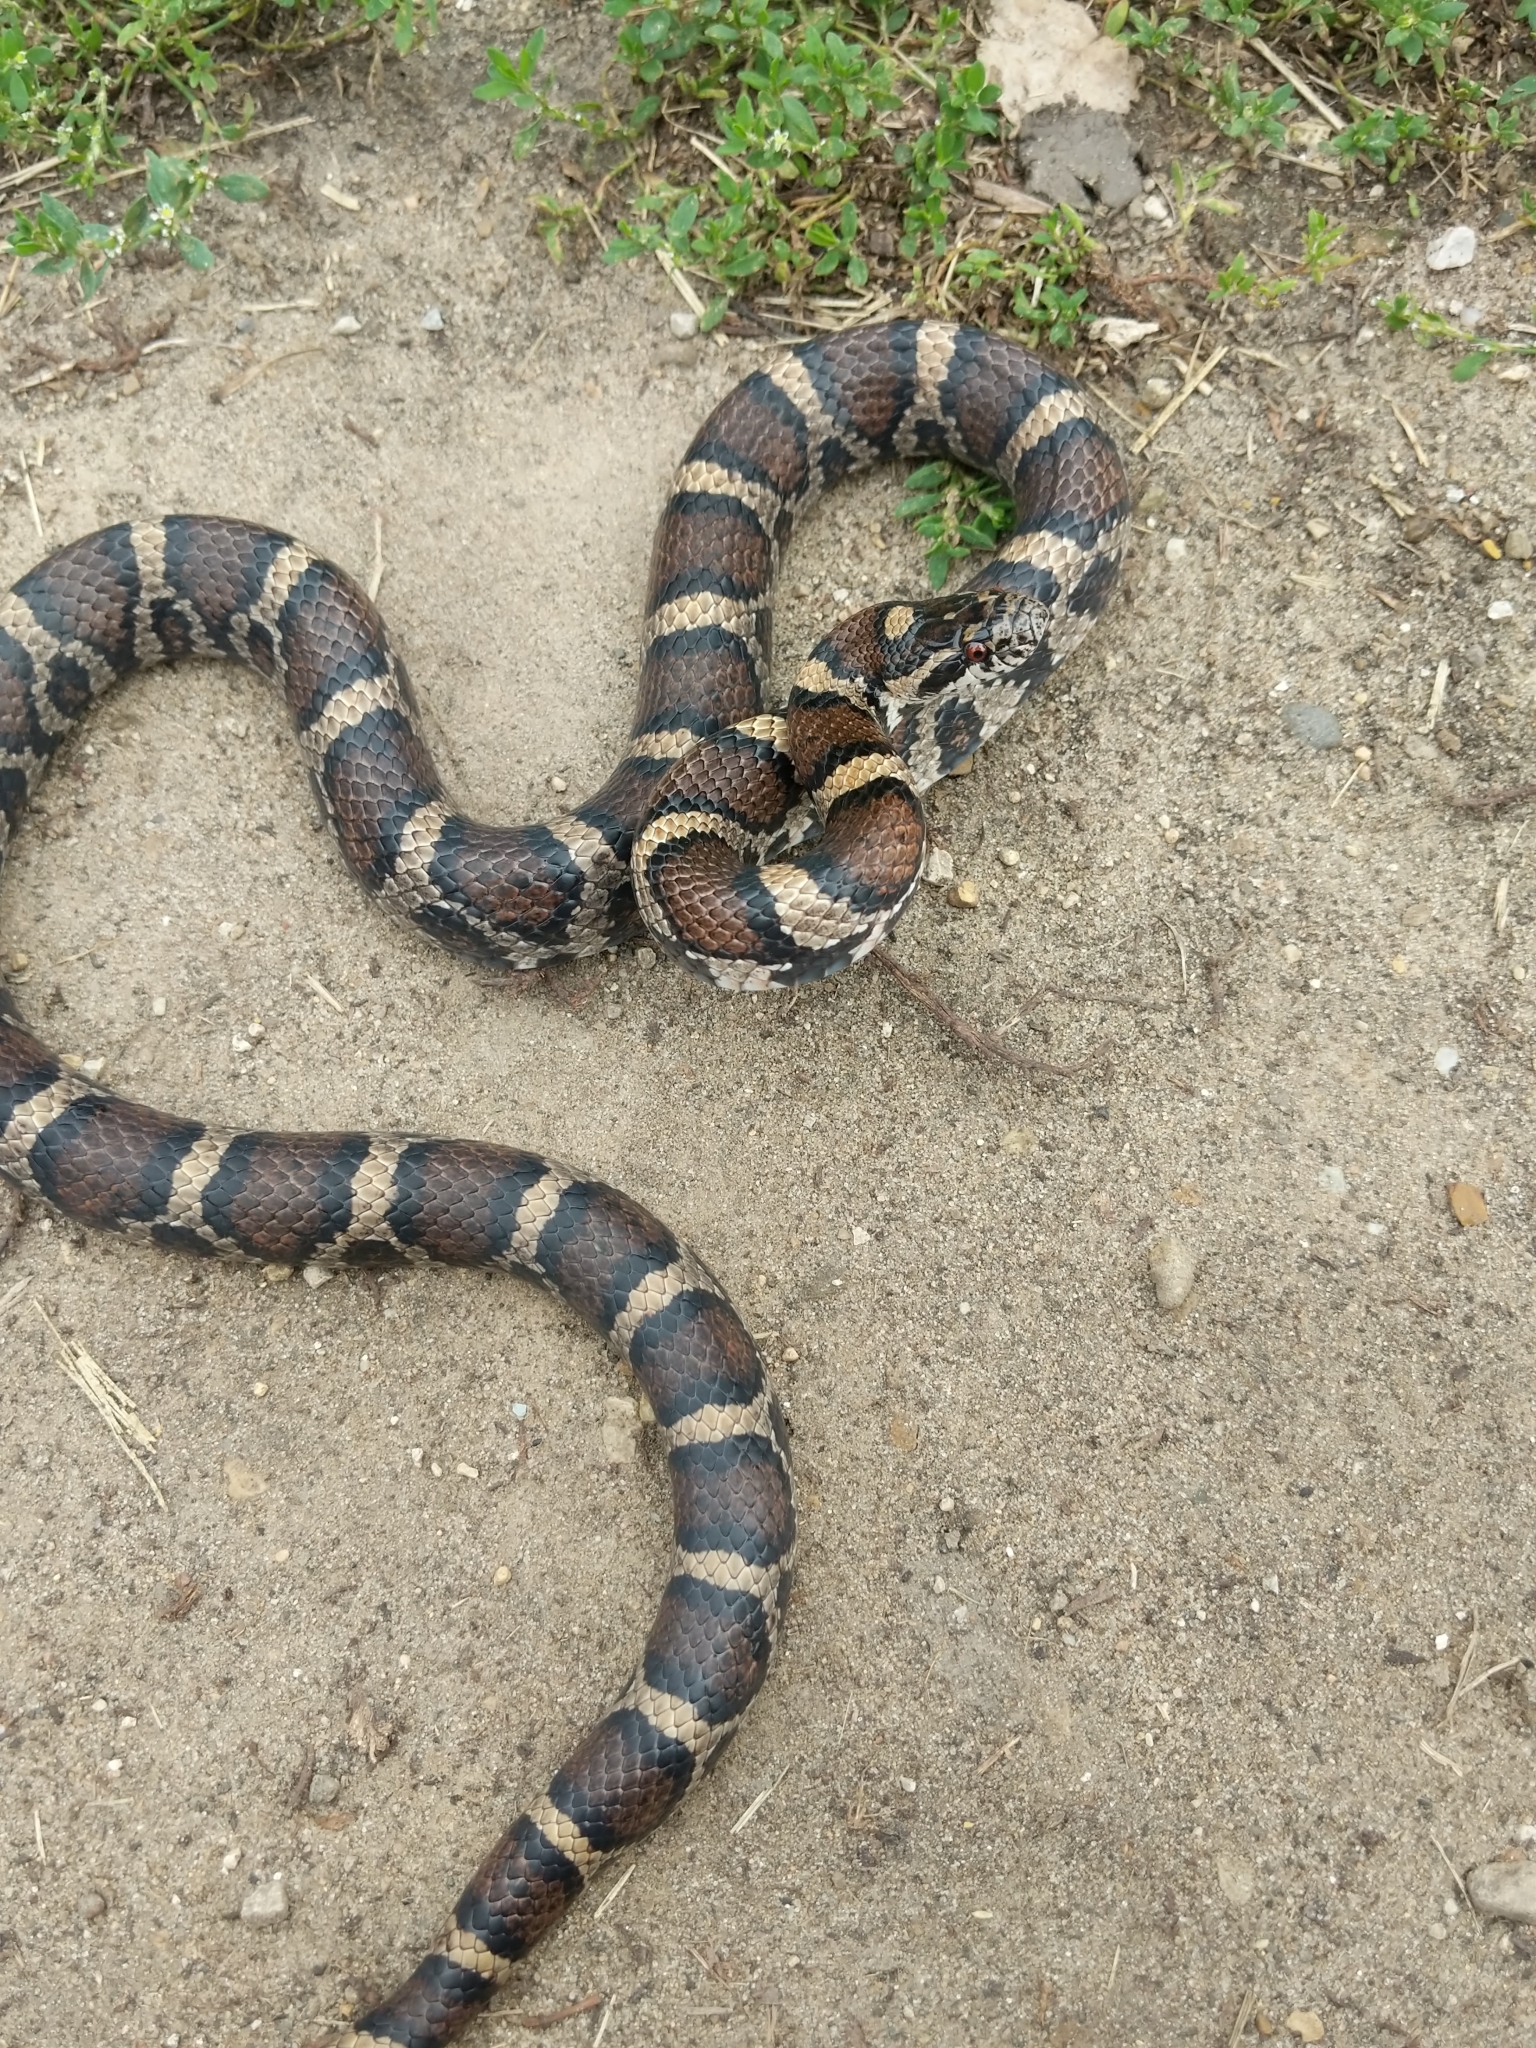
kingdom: Animalia
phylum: Chordata
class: Squamata
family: Colubridae
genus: Lampropeltis
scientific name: Lampropeltis triangulum
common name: Eastern milksnake
